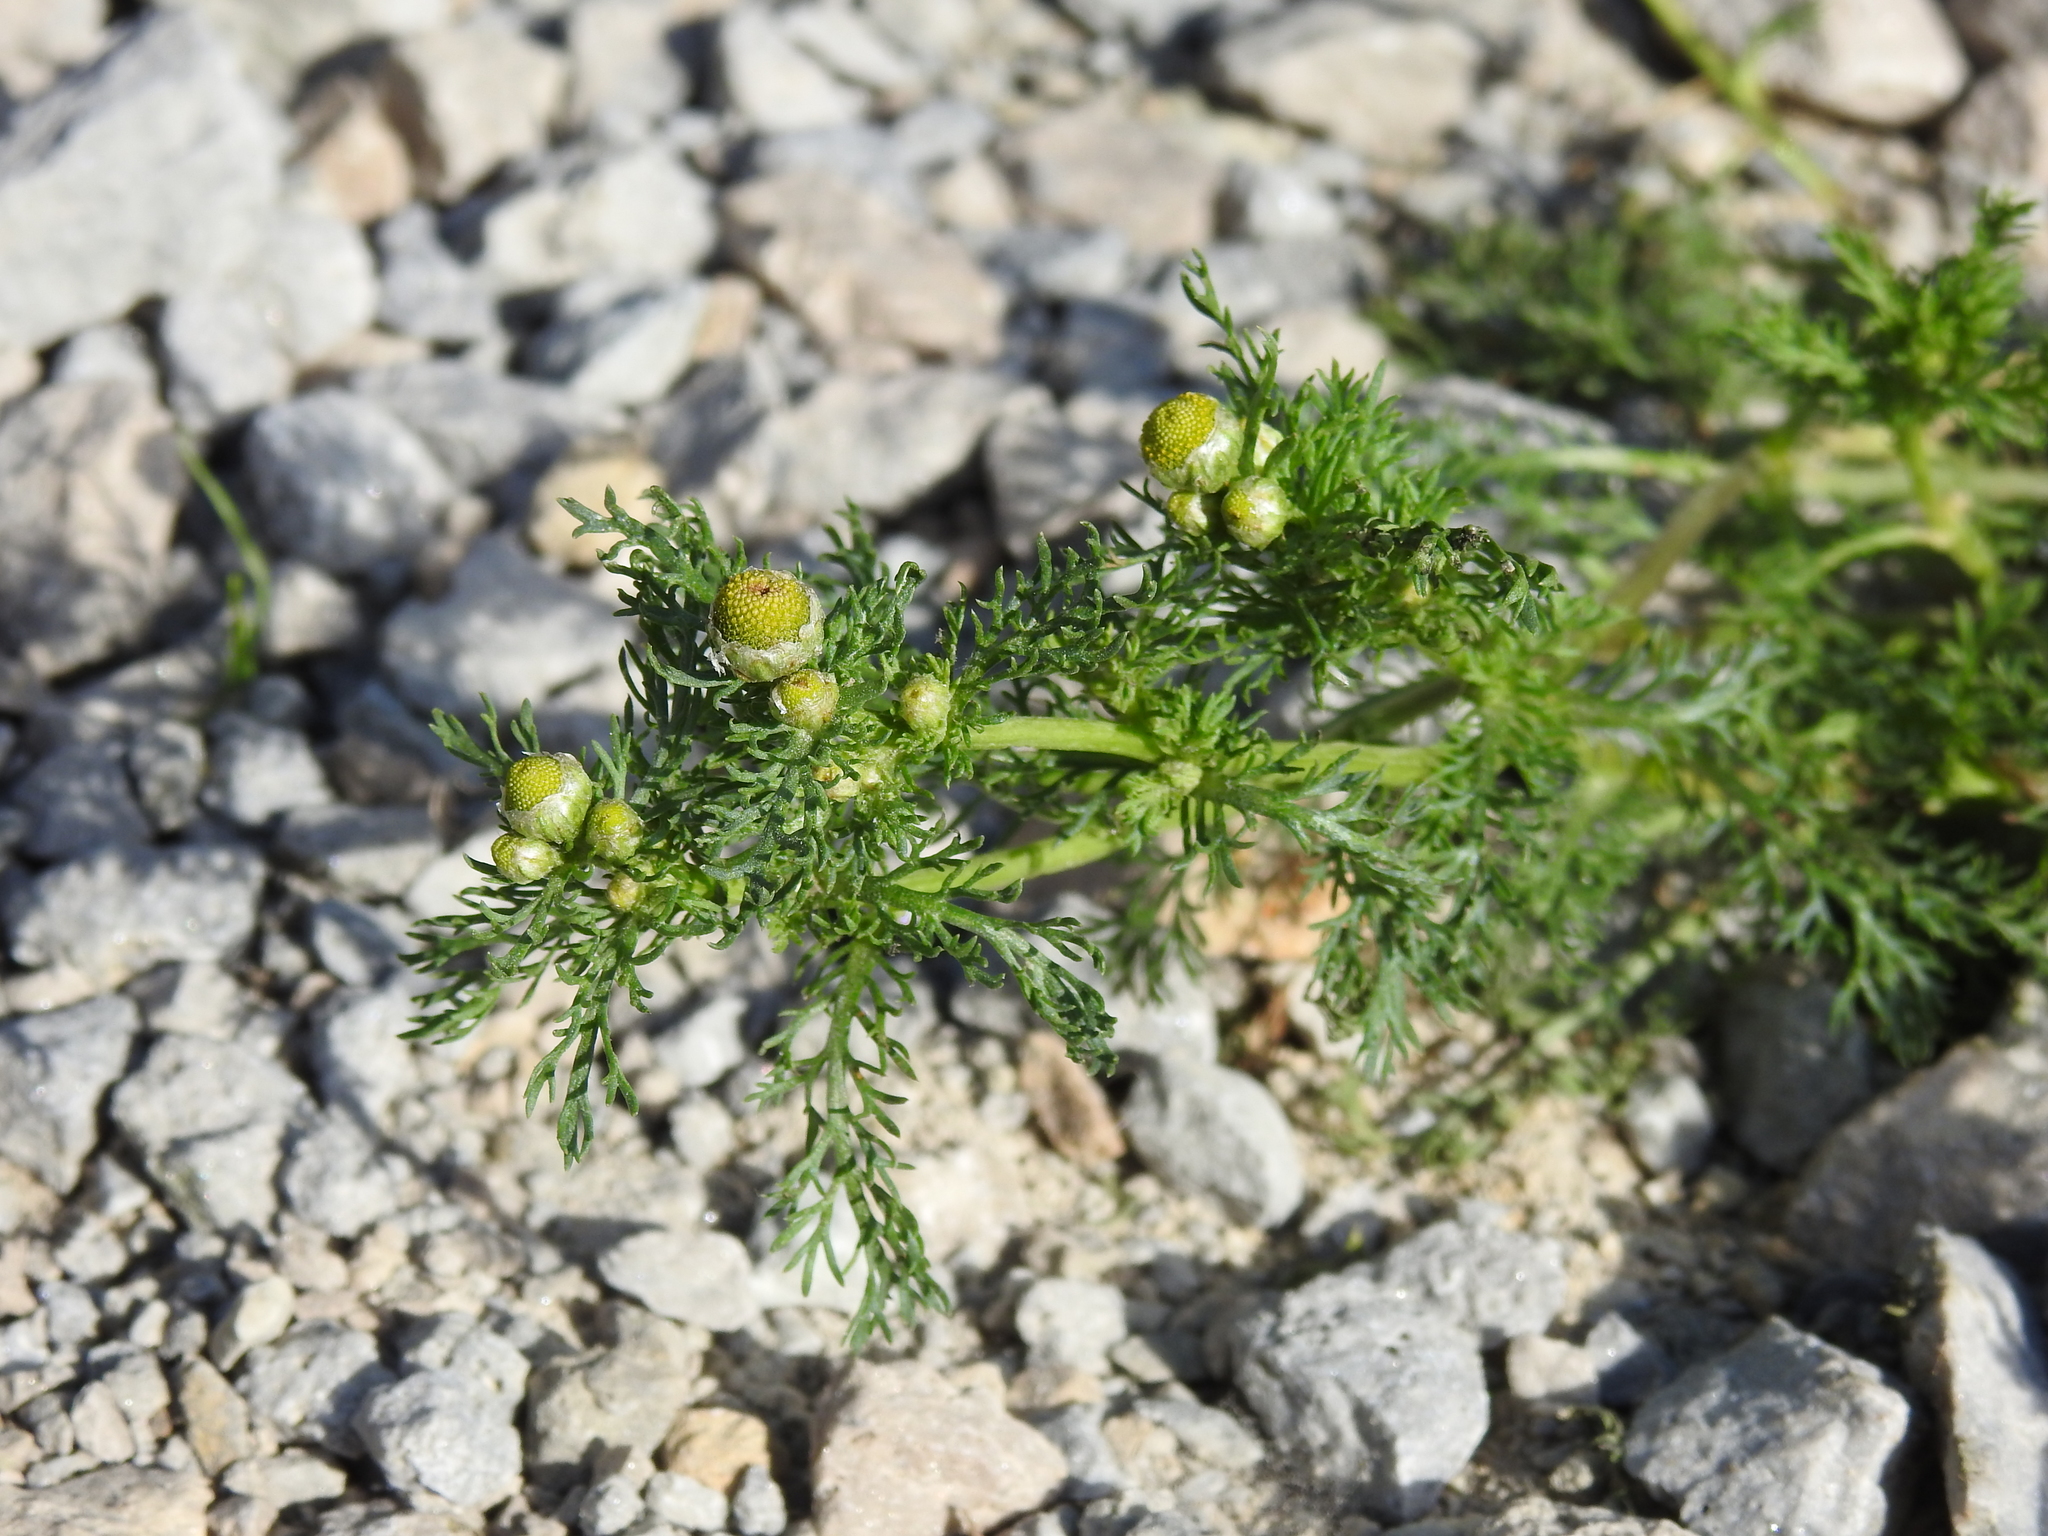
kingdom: Plantae
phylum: Tracheophyta
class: Magnoliopsida
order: Asterales
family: Asteraceae
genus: Matricaria
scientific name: Matricaria discoidea
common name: Disc mayweed
